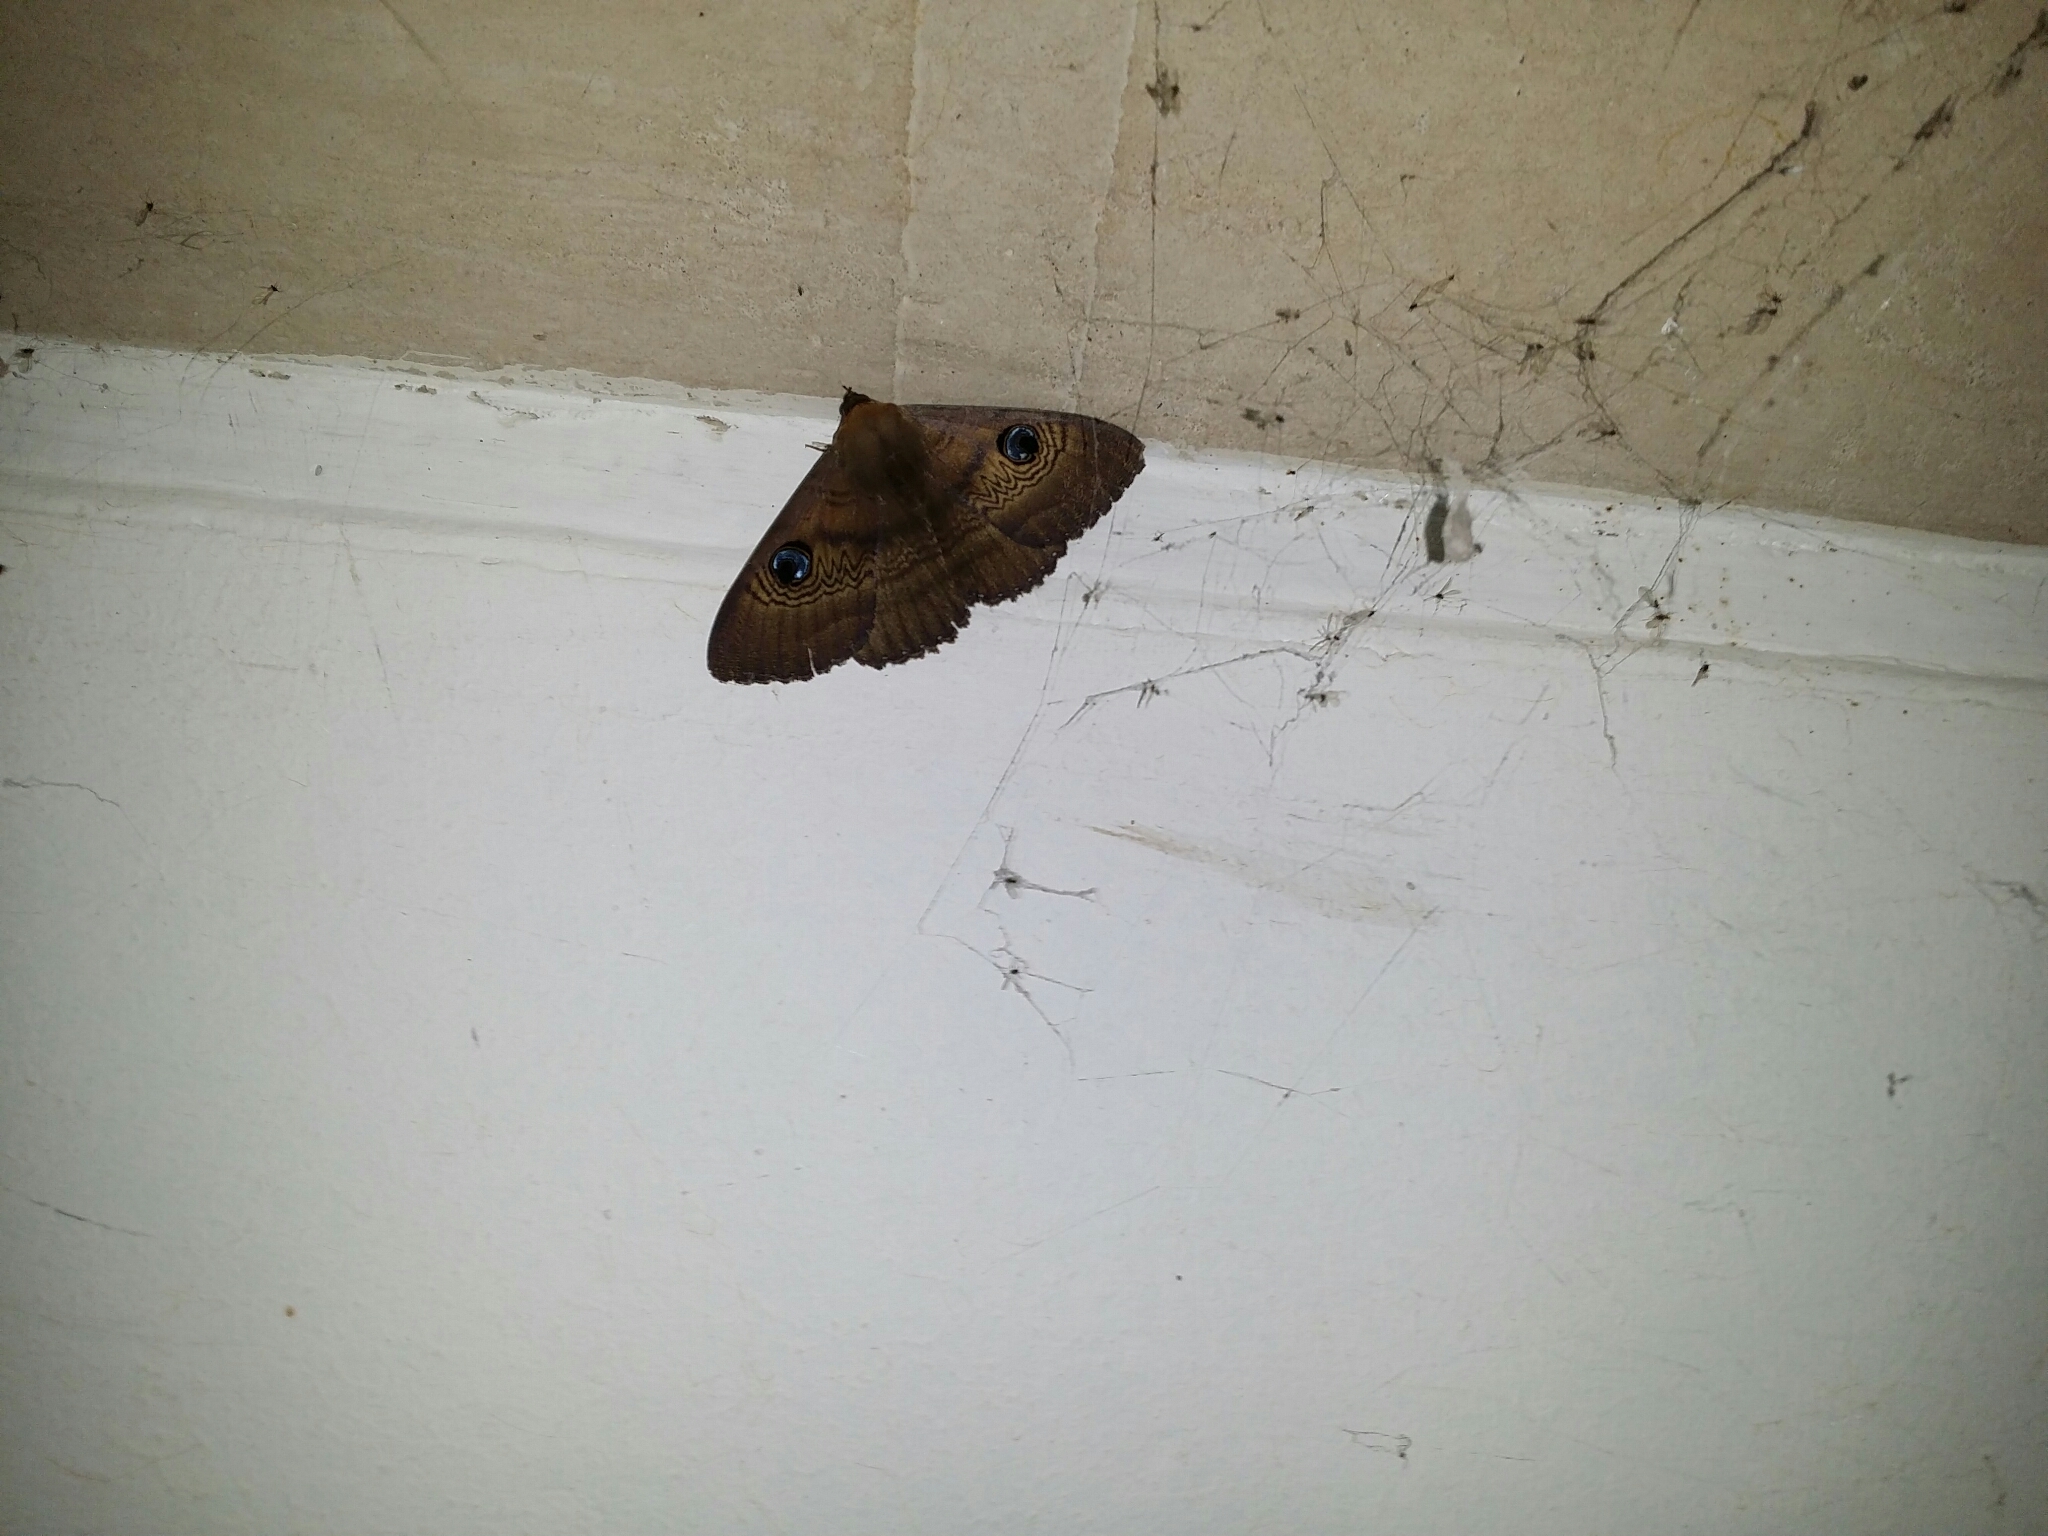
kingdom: Animalia
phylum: Arthropoda
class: Insecta
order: Lepidoptera
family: Erebidae
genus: Dasypodia
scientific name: Dasypodia selenophora
